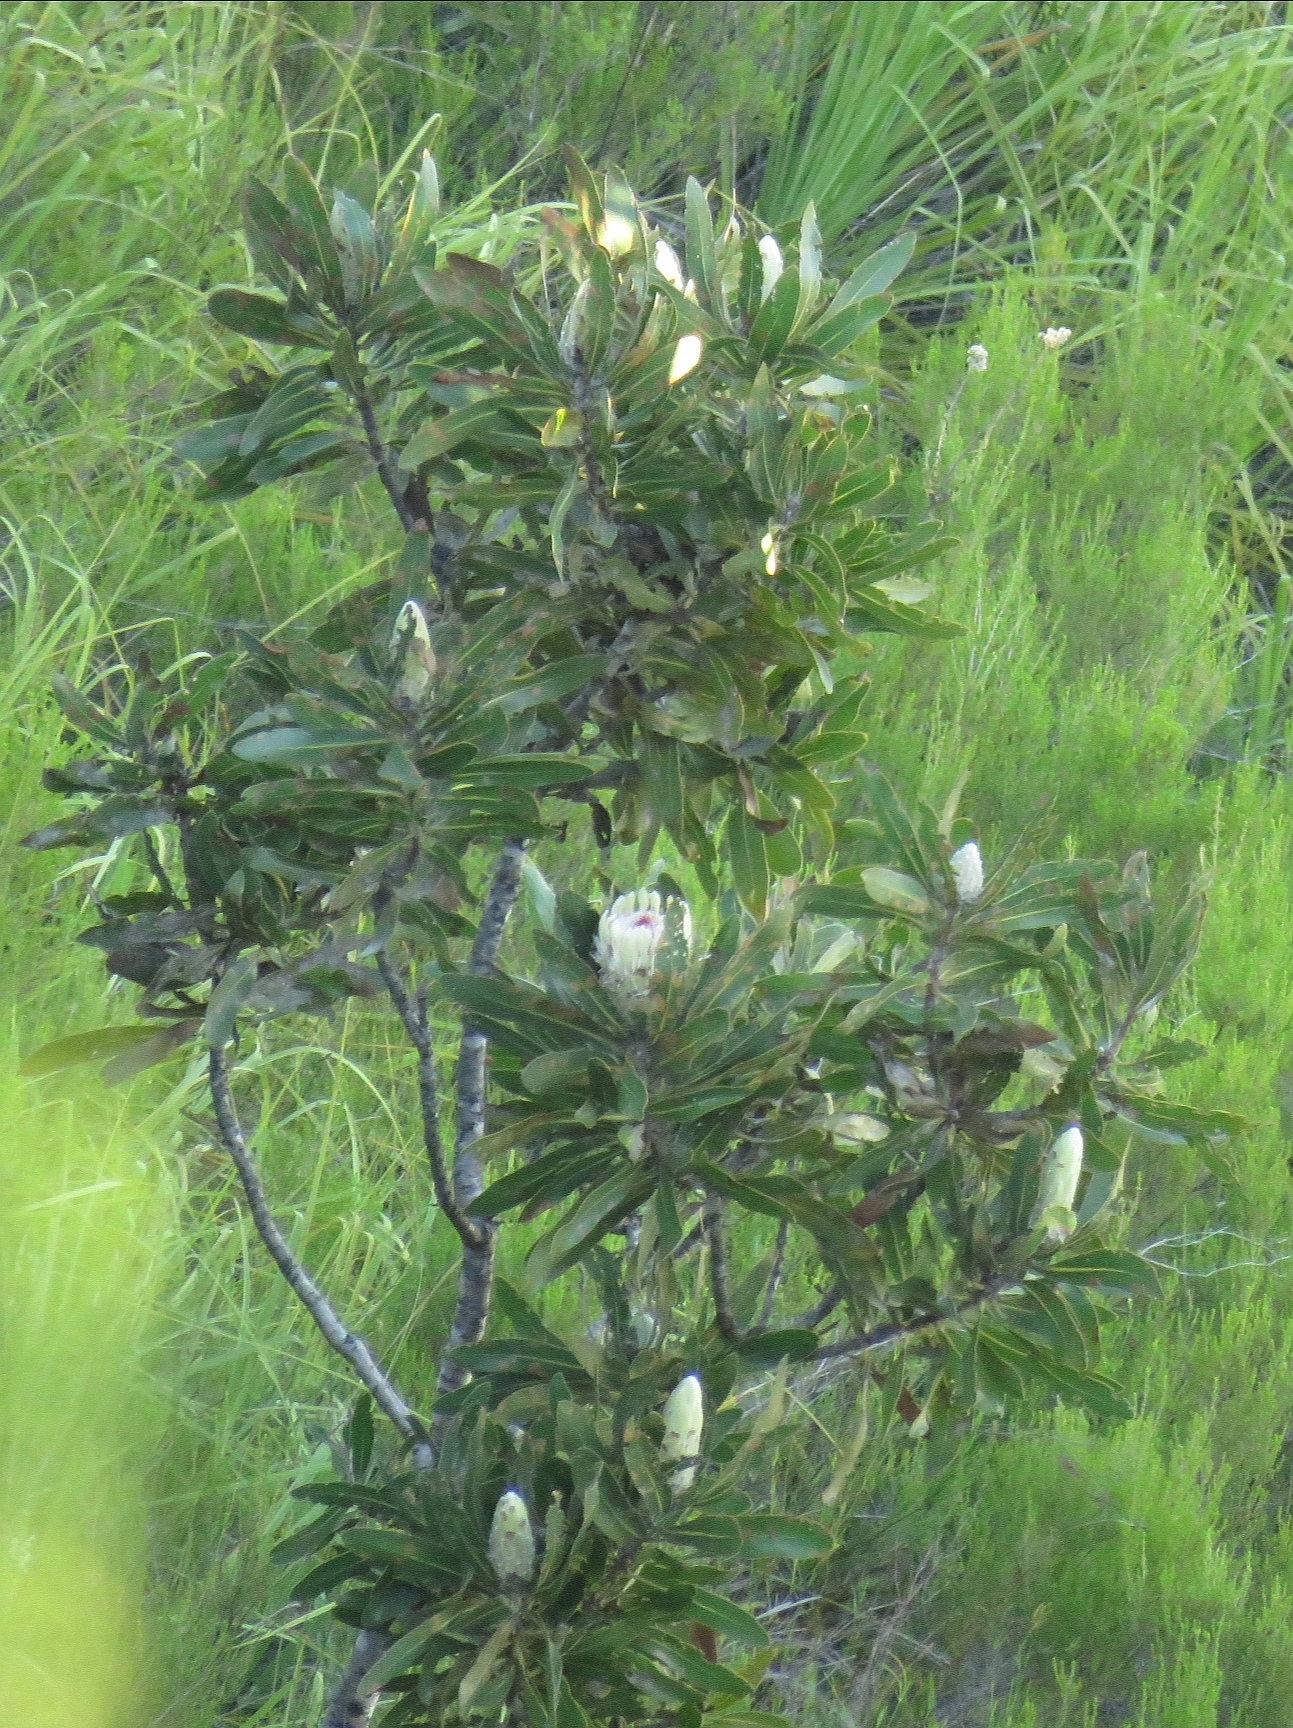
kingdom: Plantae
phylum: Tracheophyta
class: Magnoliopsida
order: Proteales
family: Proteaceae
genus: Protea
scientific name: Protea lorifolia
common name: Strap-leaved protea
